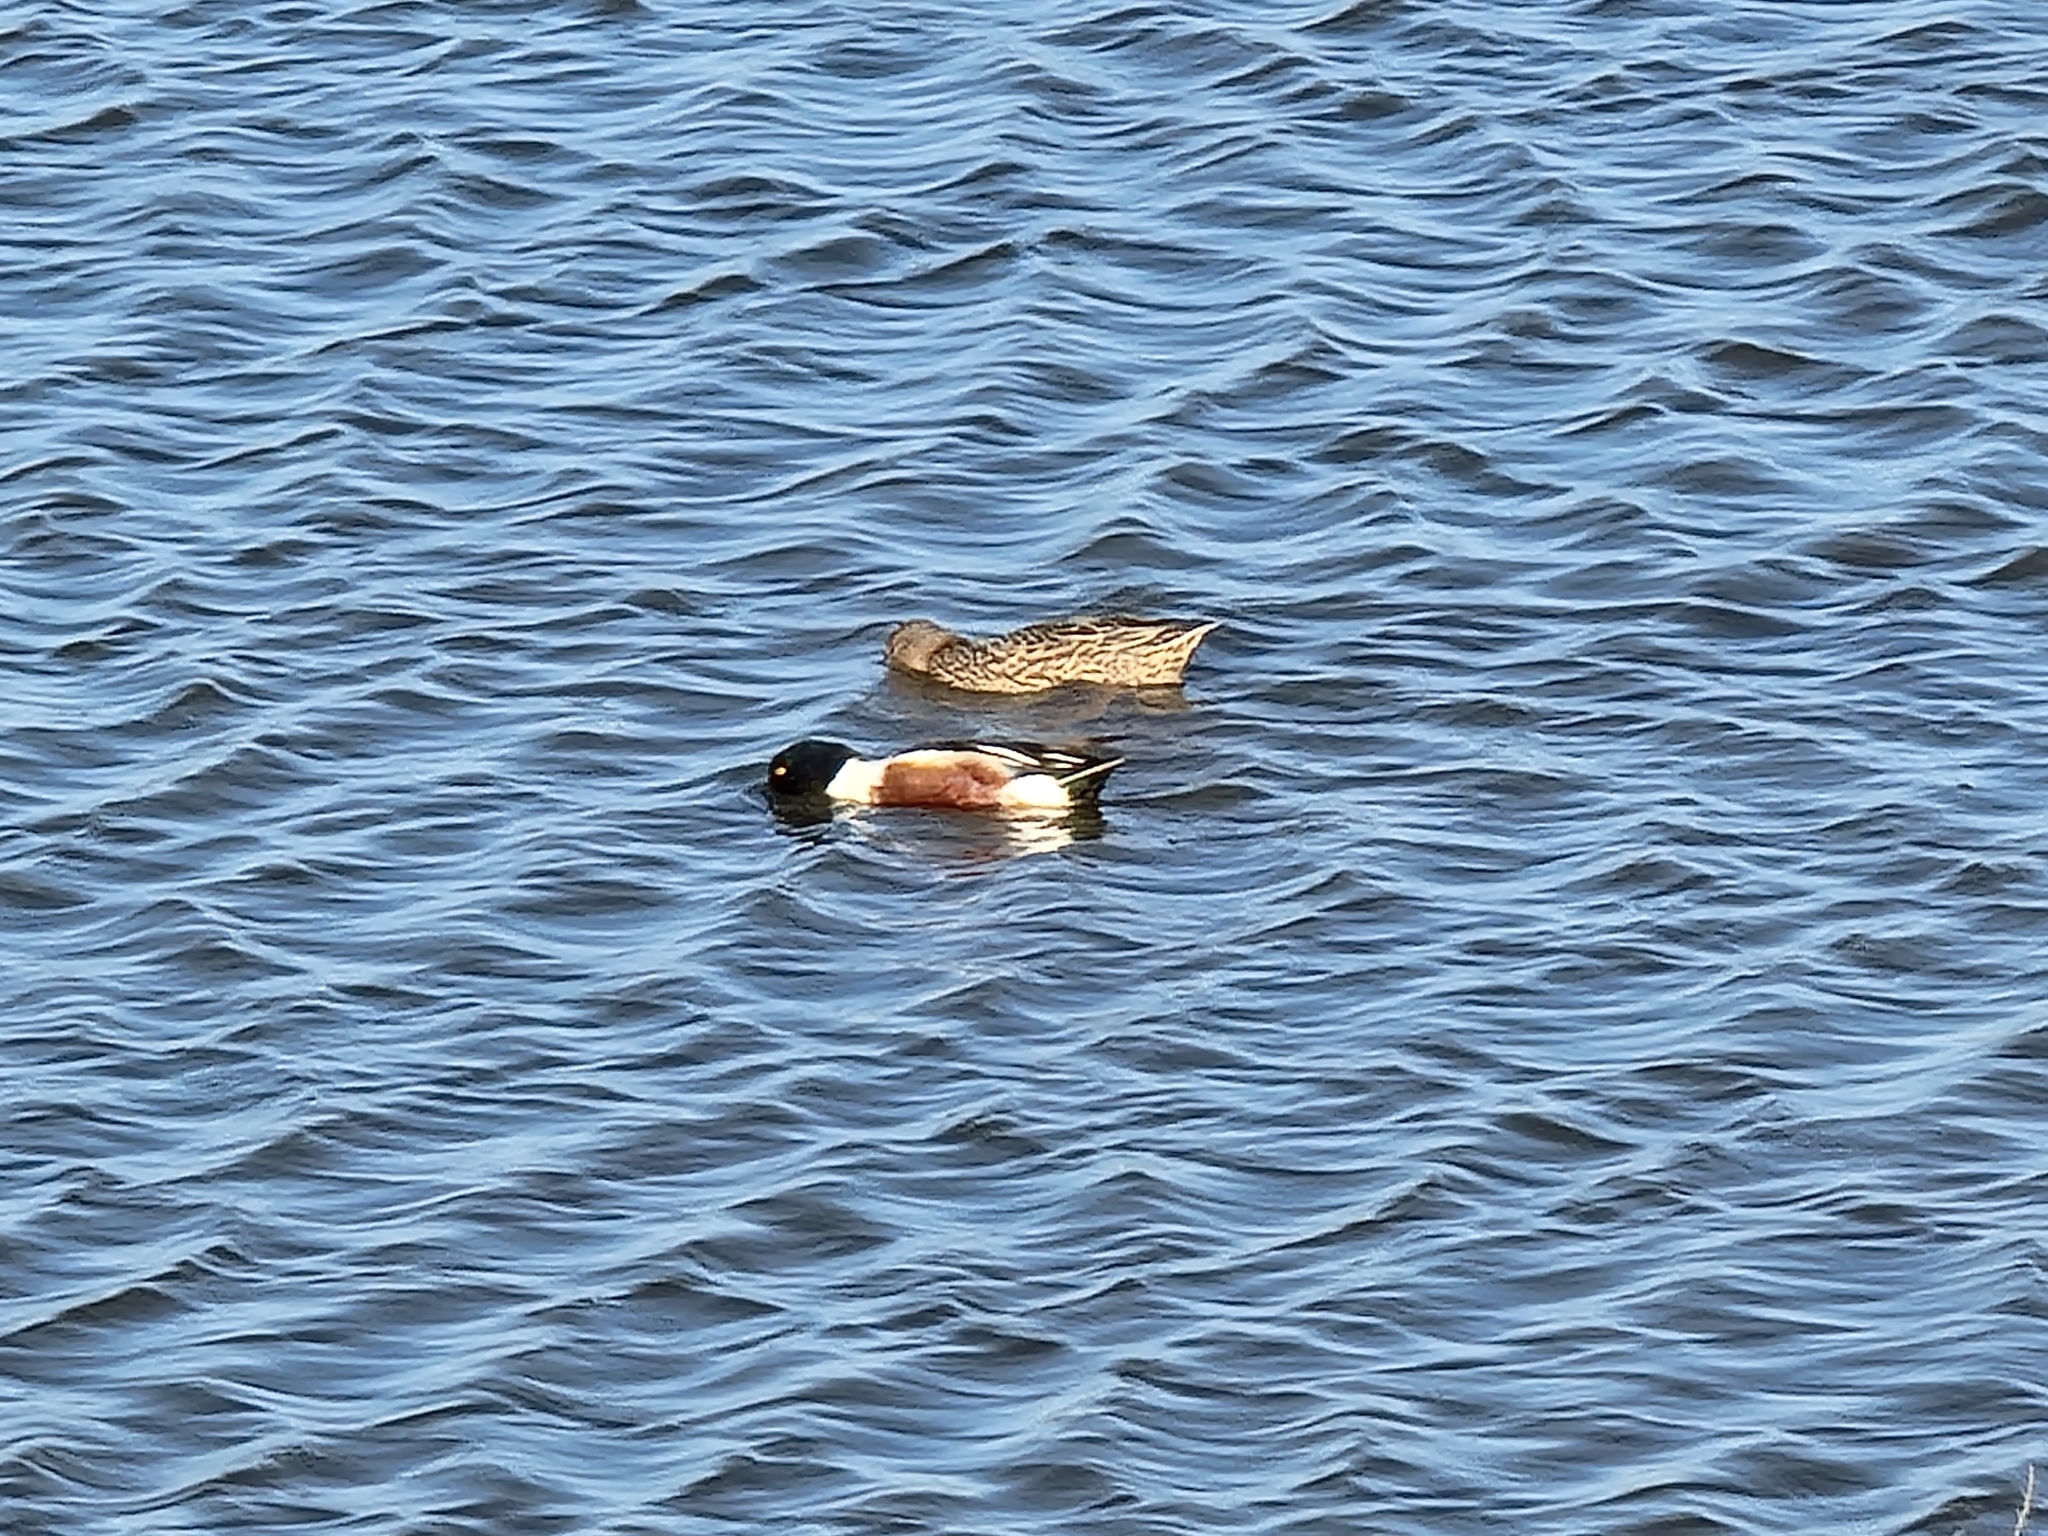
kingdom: Animalia
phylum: Chordata
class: Aves
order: Anseriformes
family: Anatidae
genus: Spatula
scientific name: Spatula clypeata
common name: Northern shoveler
